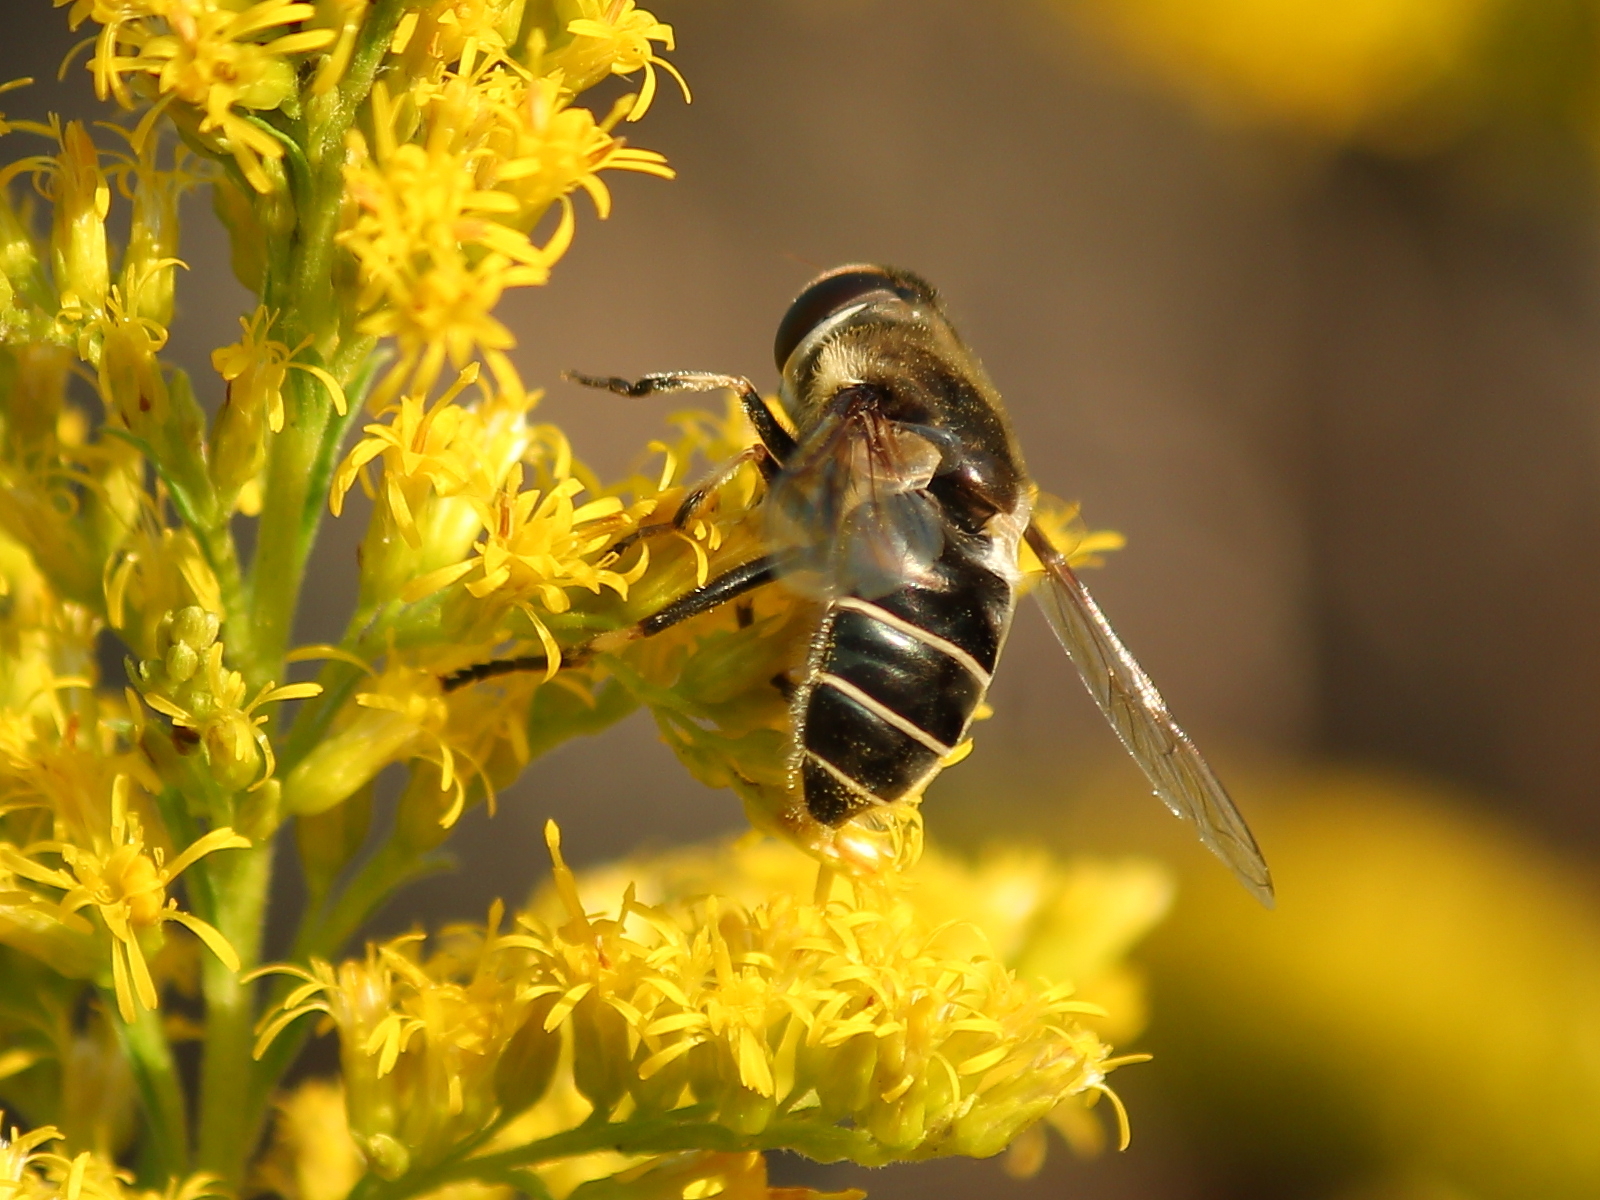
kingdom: Animalia
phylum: Arthropoda
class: Insecta
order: Diptera
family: Syrphidae
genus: Eristalis
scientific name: Eristalis dimidiata
